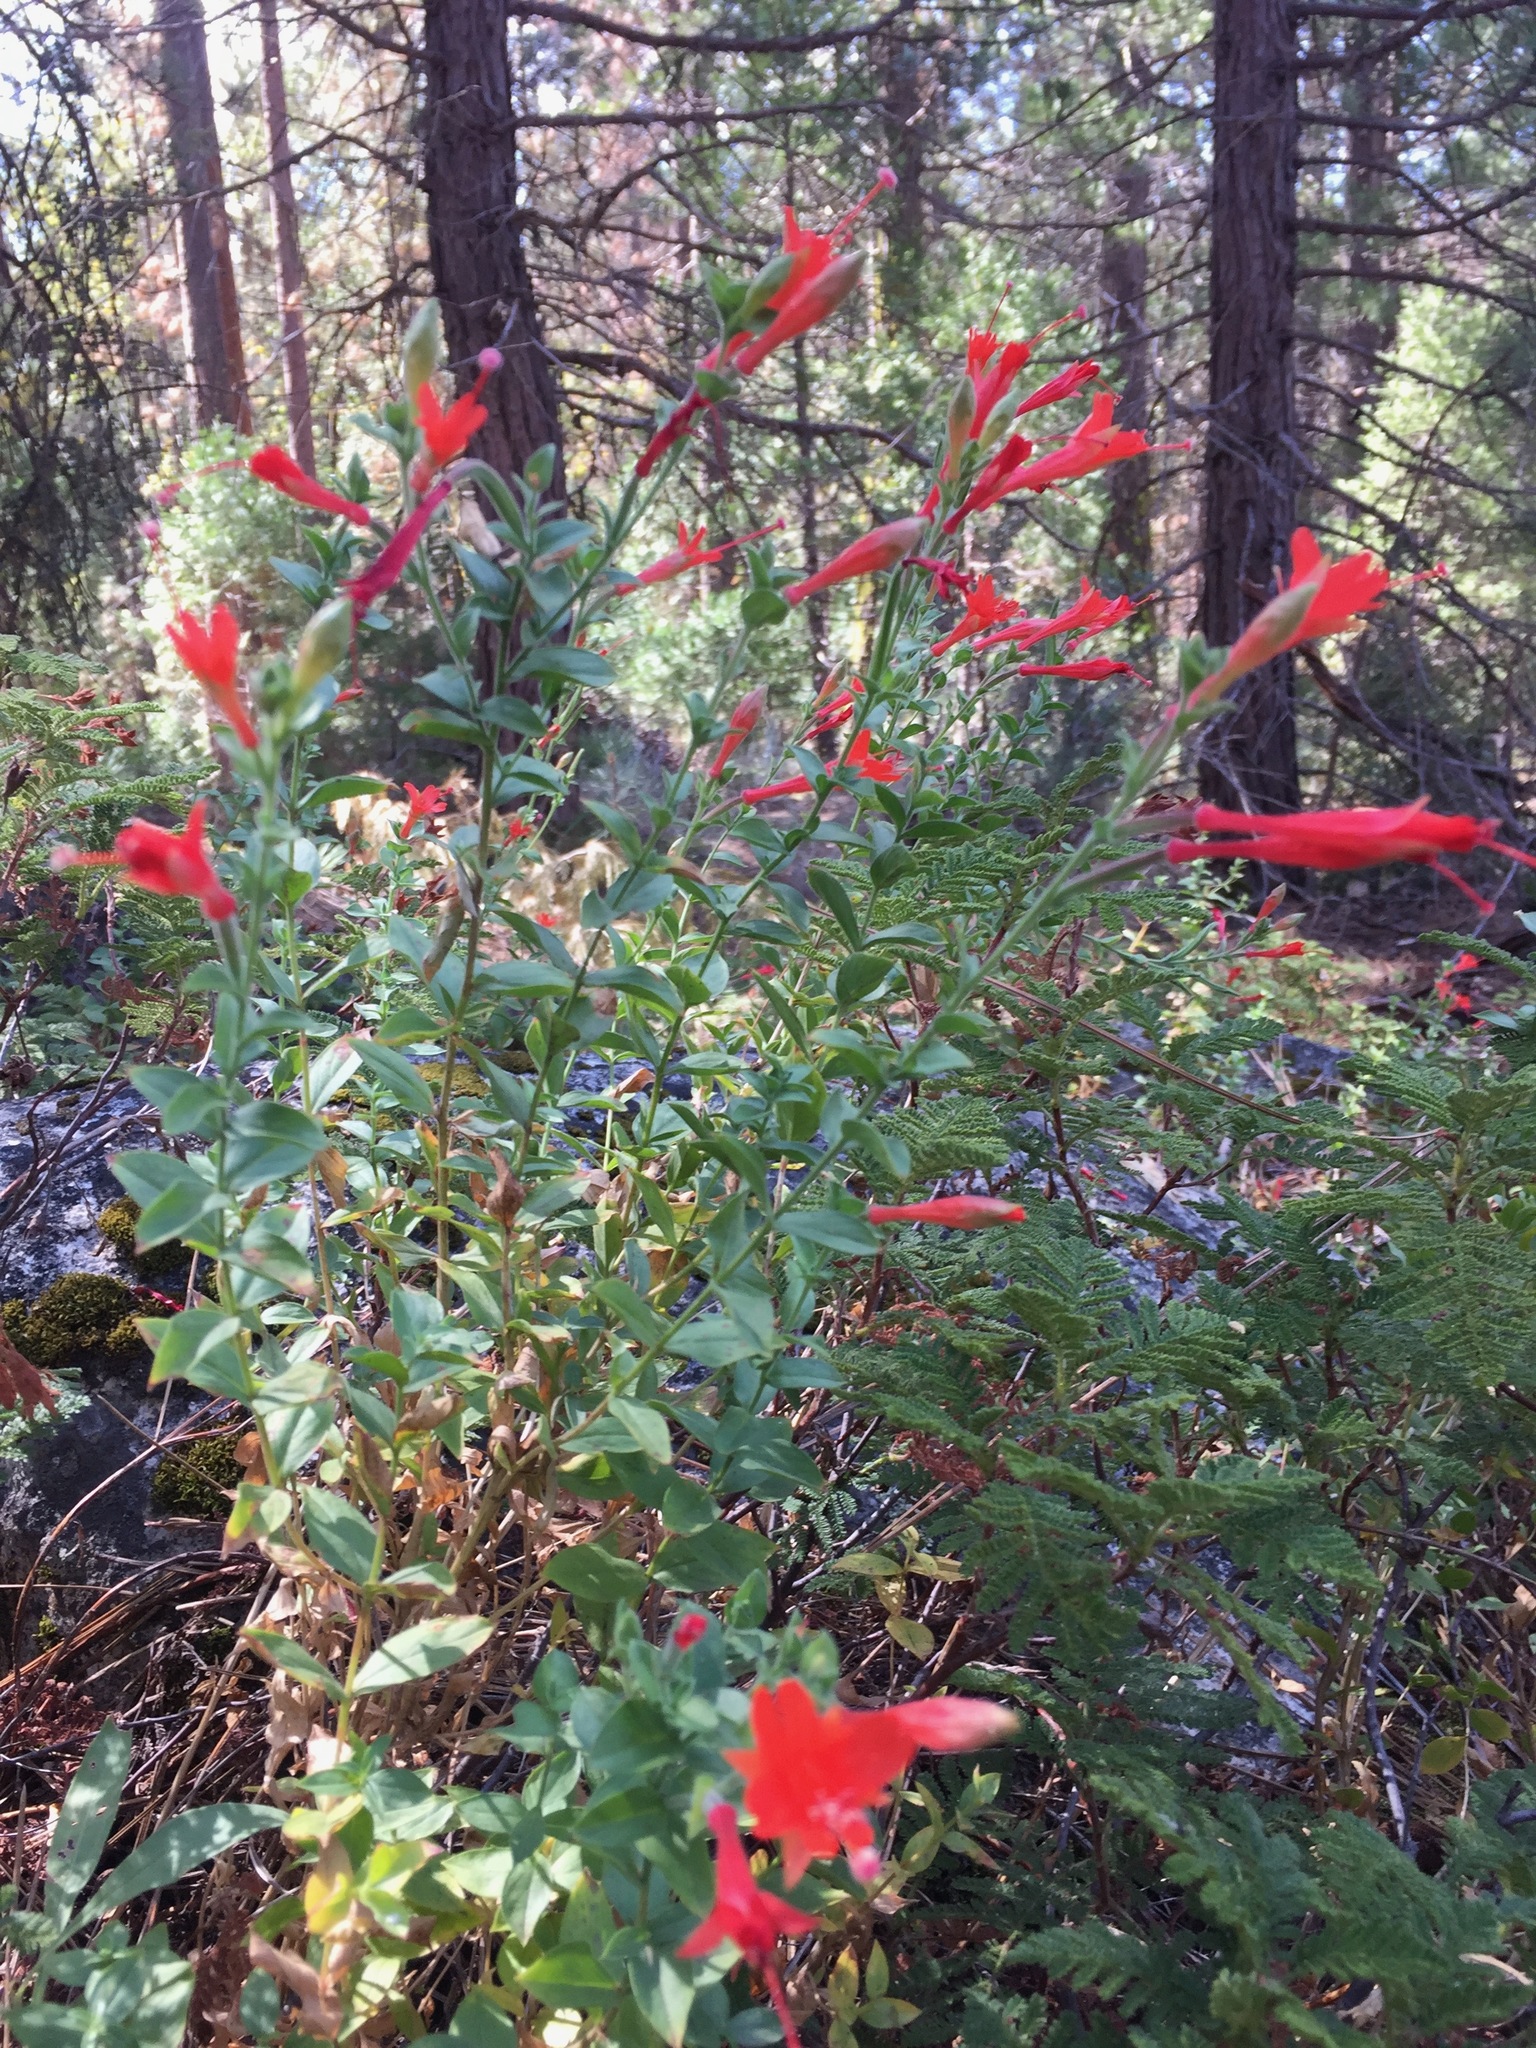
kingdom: Plantae
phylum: Tracheophyta
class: Magnoliopsida
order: Myrtales
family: Onagraceae
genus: Epilobium
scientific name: Epilobium canum
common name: California-fuchsia
